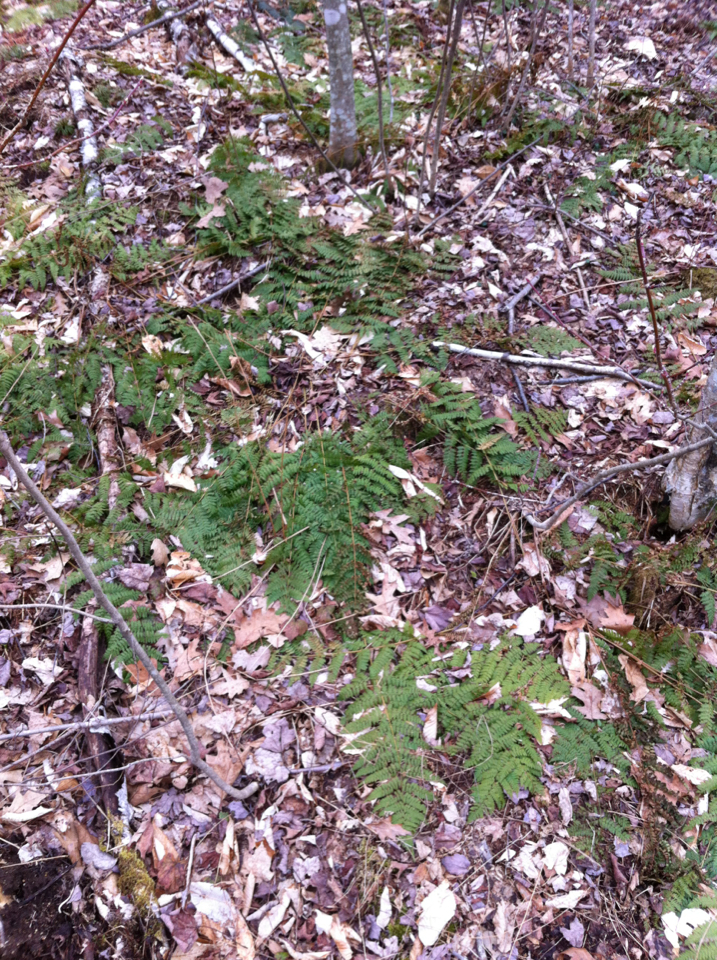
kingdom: Plantae
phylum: Tracheophyta
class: Polypodiopsida
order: Polypodiales
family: Dryopteridaceae
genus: Dryopteris
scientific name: Dryopteris intermedia
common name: Evergreen wood fern
